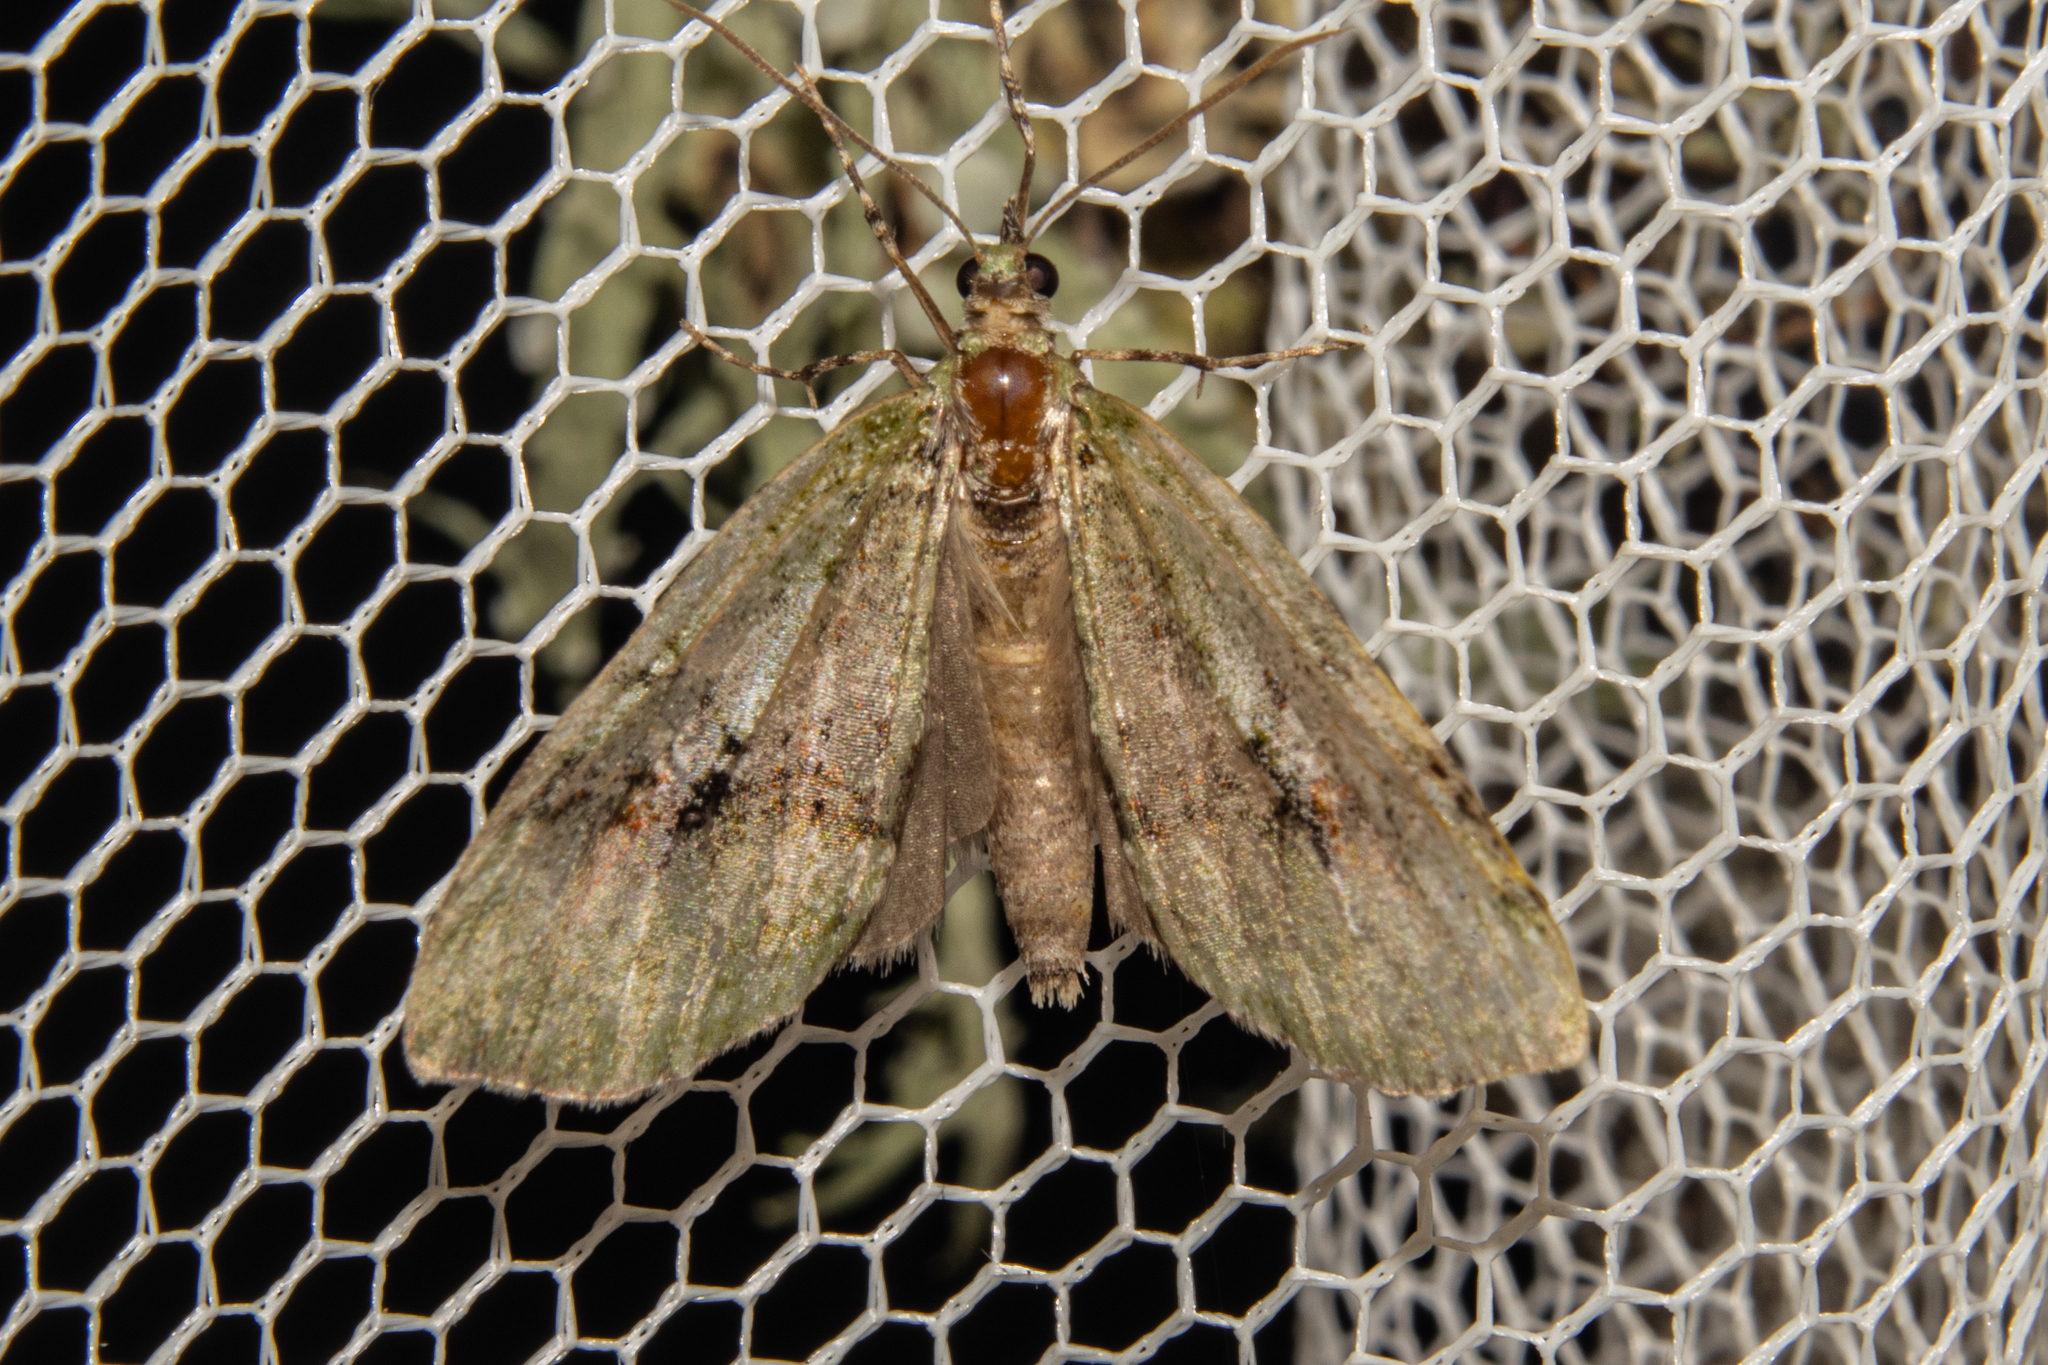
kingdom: Animalia
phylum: Arthropoda
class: Insecta
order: Lepidoptera
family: Geometridae
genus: Tatosoma
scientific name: Tatosoma topea
